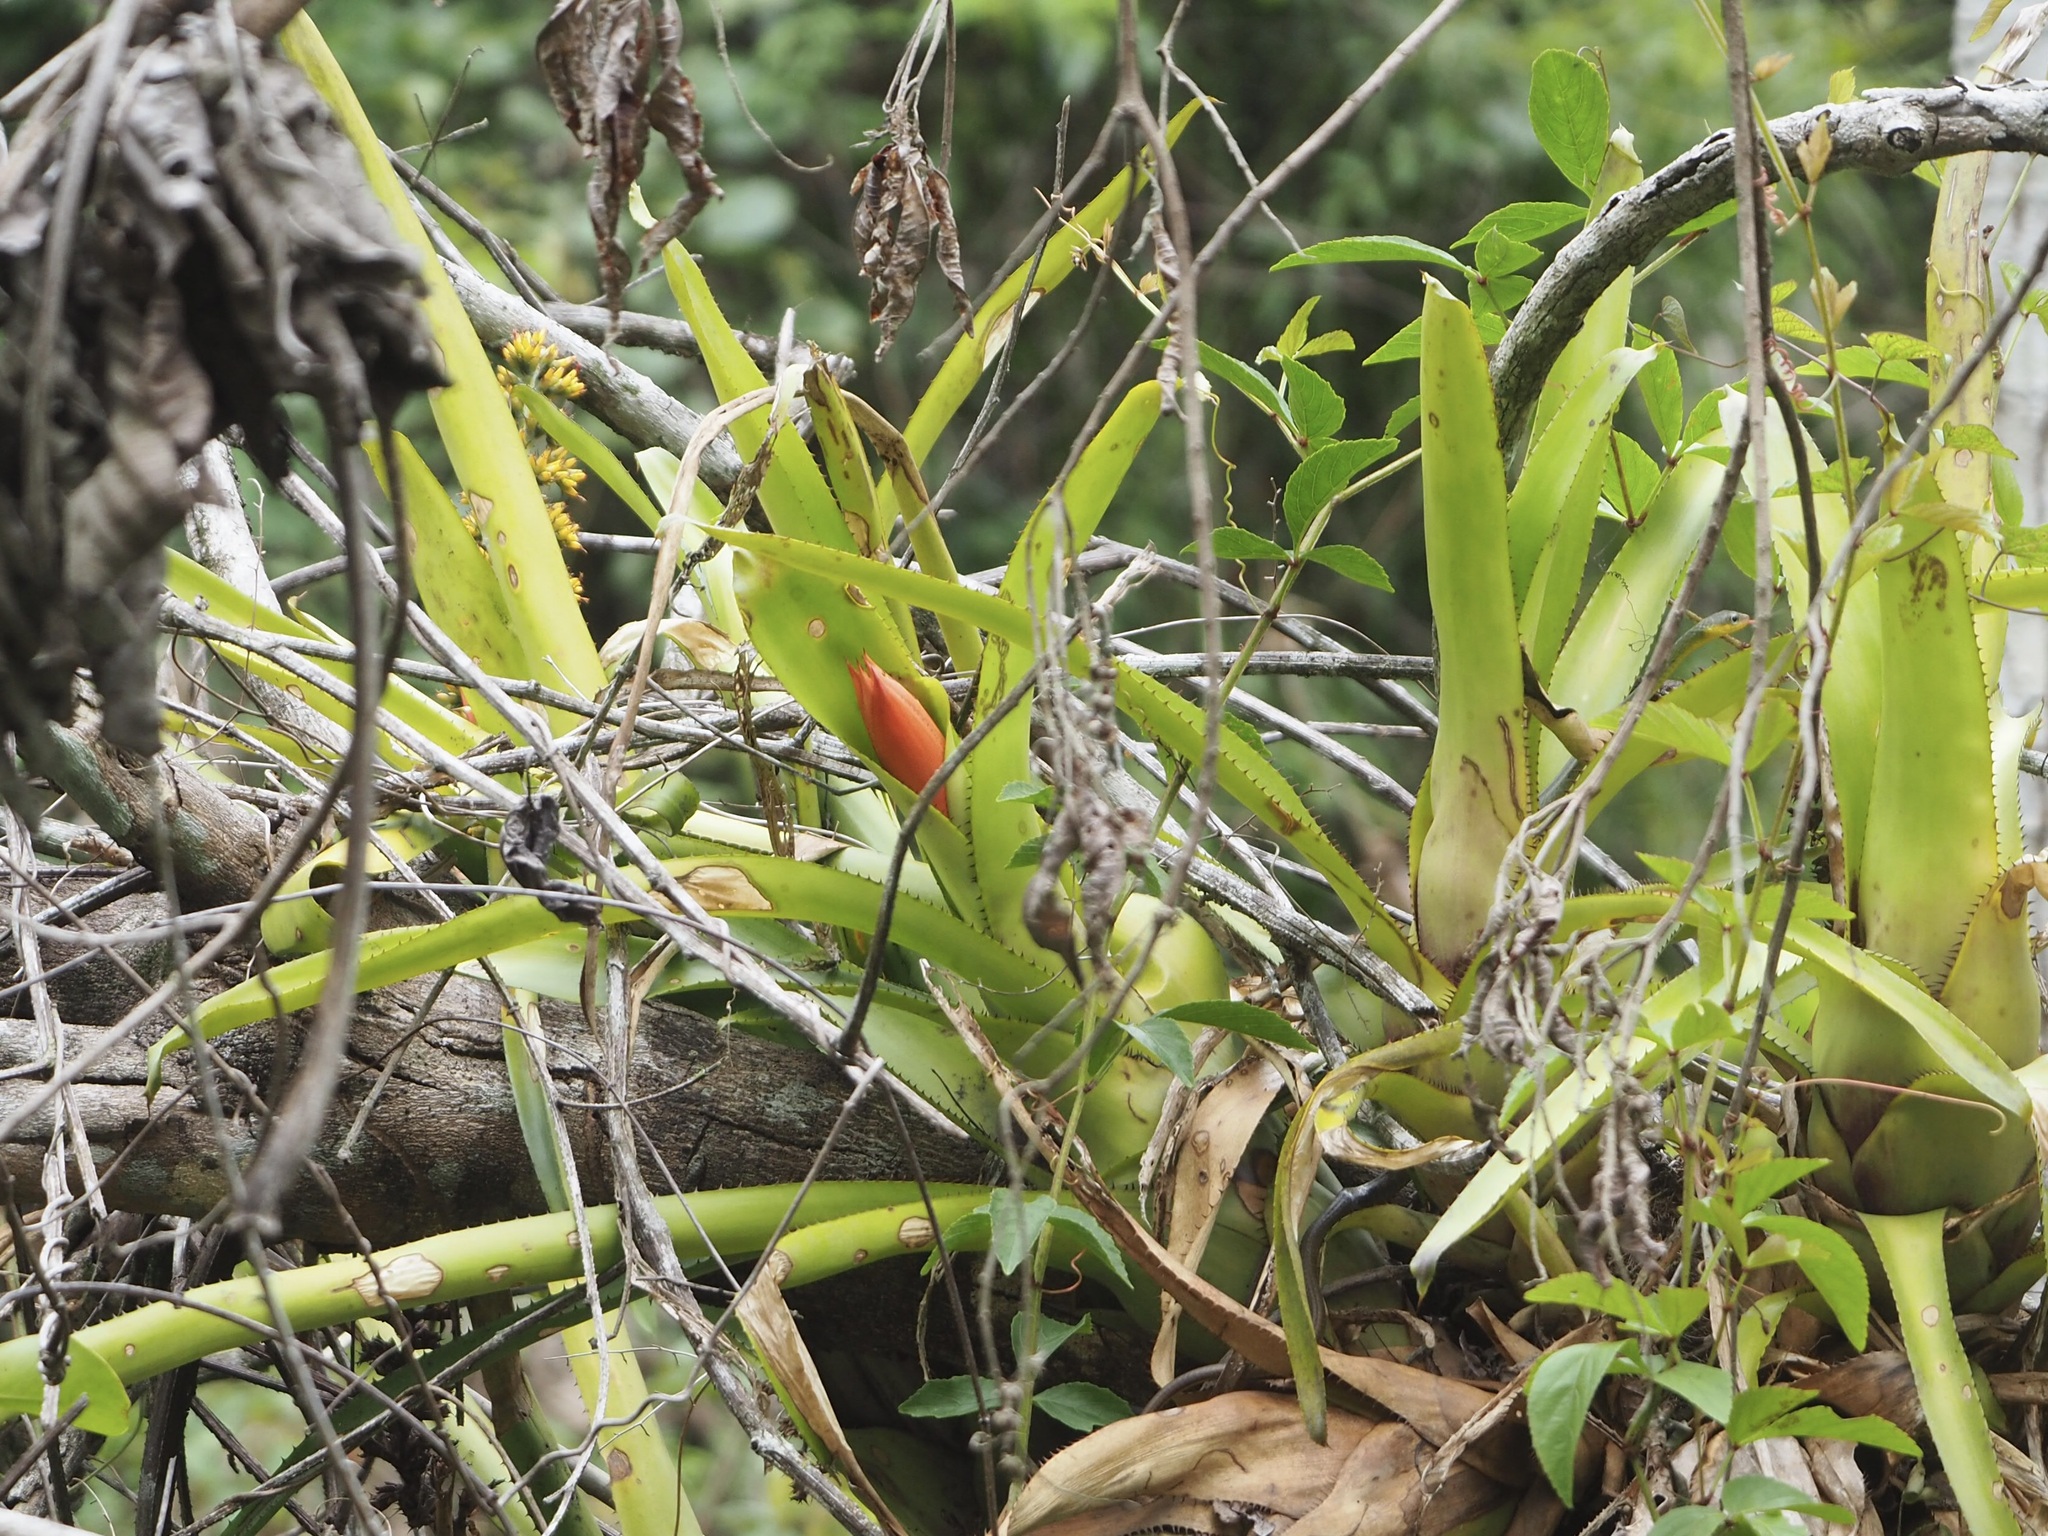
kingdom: Plantae
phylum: Tracheophyta
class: Liliopsida
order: Poales
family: Bromeliaceae
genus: Aechmea
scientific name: Aechmea mertensii
